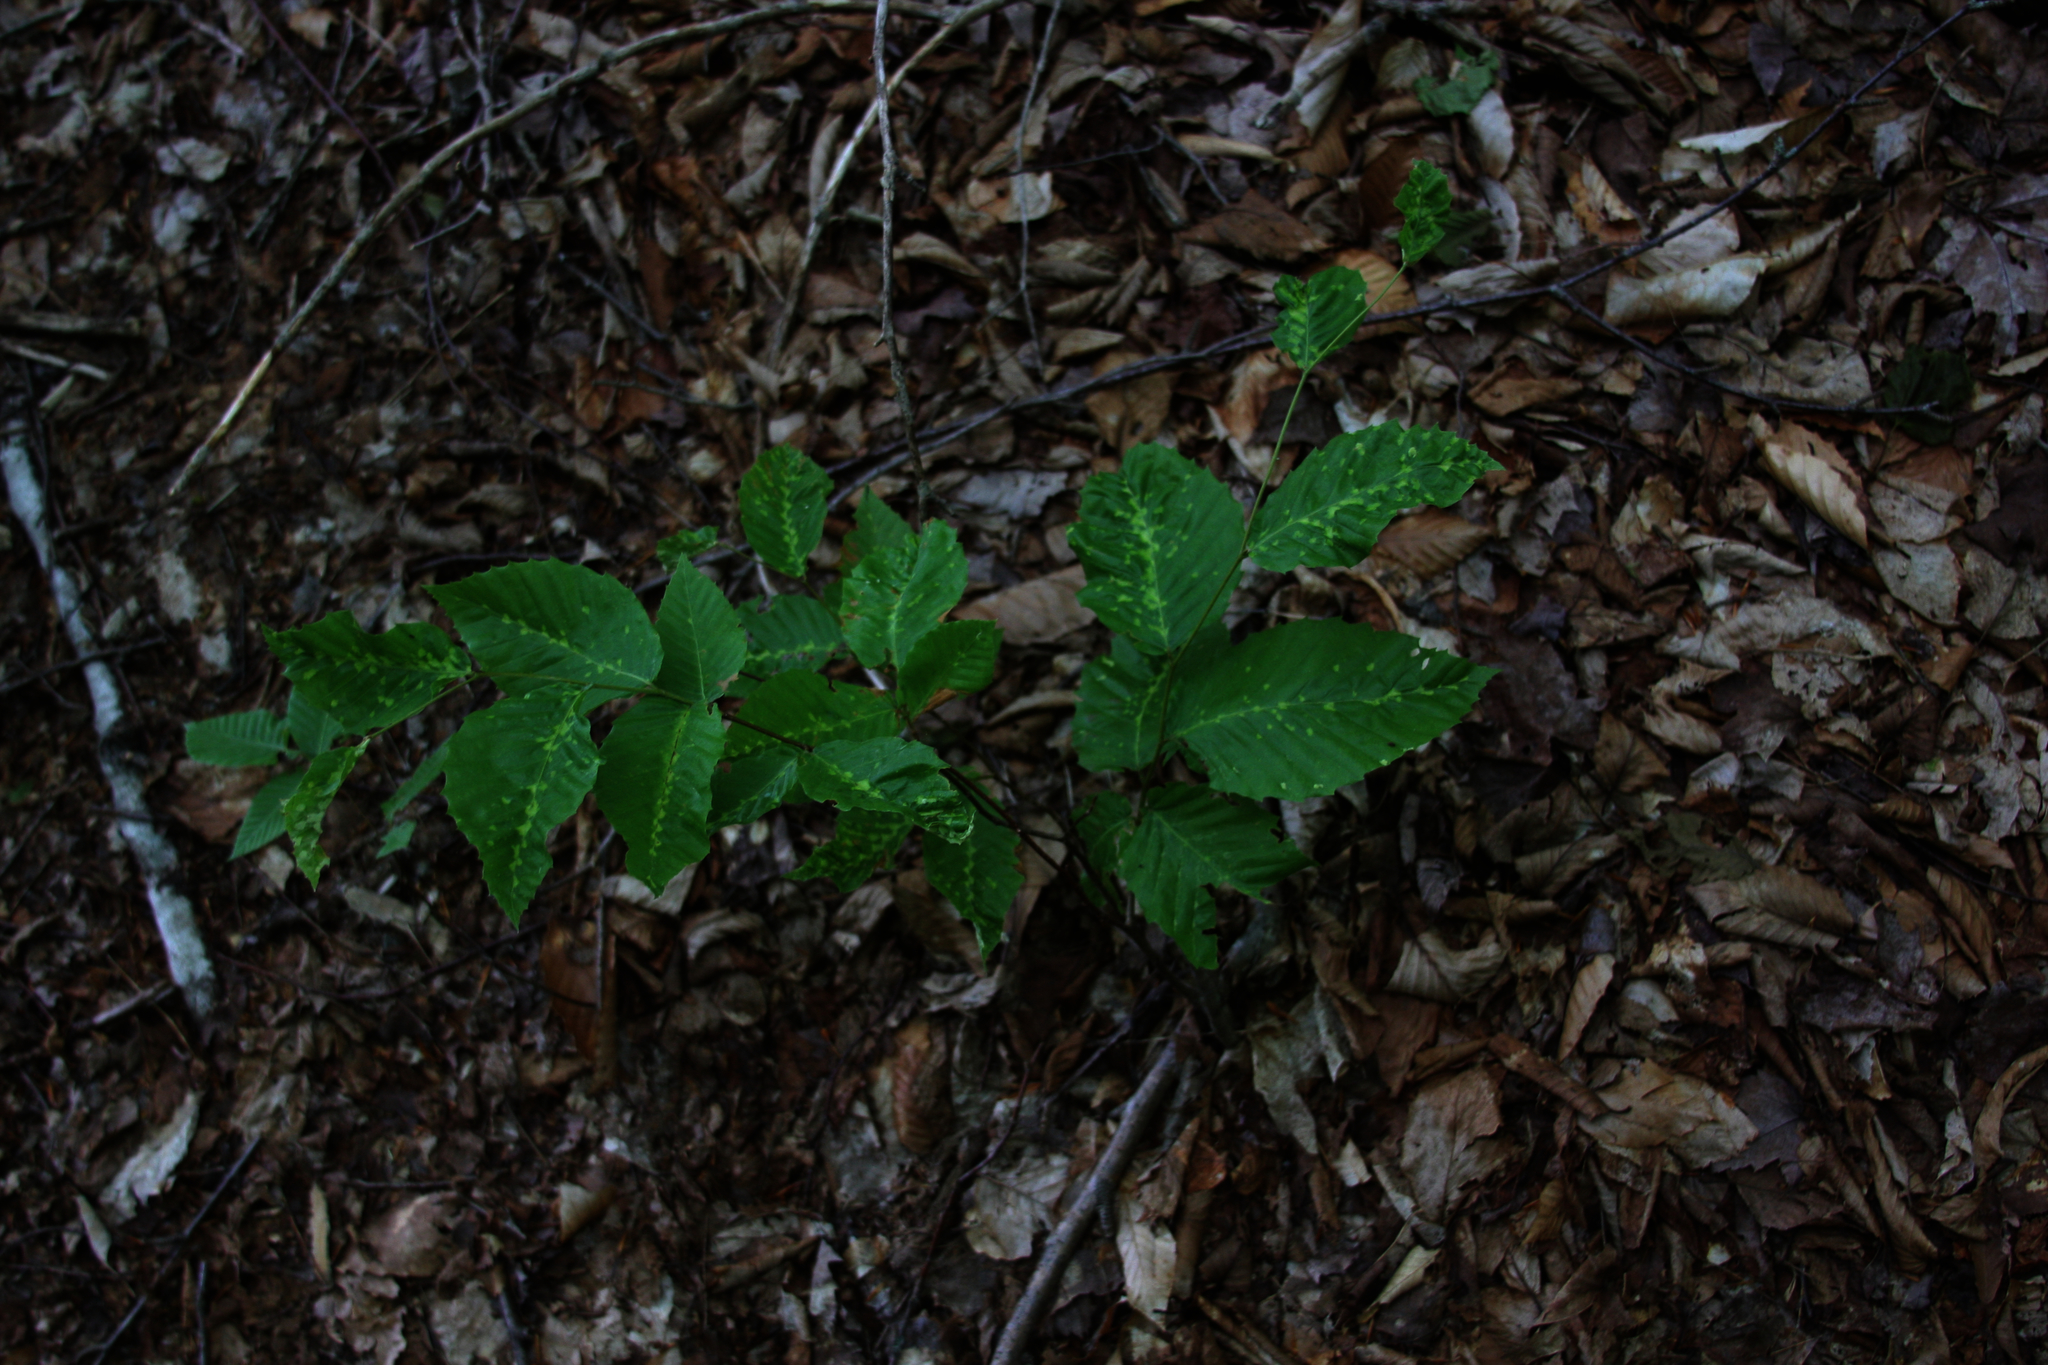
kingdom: Plantae
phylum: Tracheophyta
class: Magnoliopsida
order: Fagales
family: Fagaceae
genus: Fagus
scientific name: Fagus grandifolia
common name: American beech
